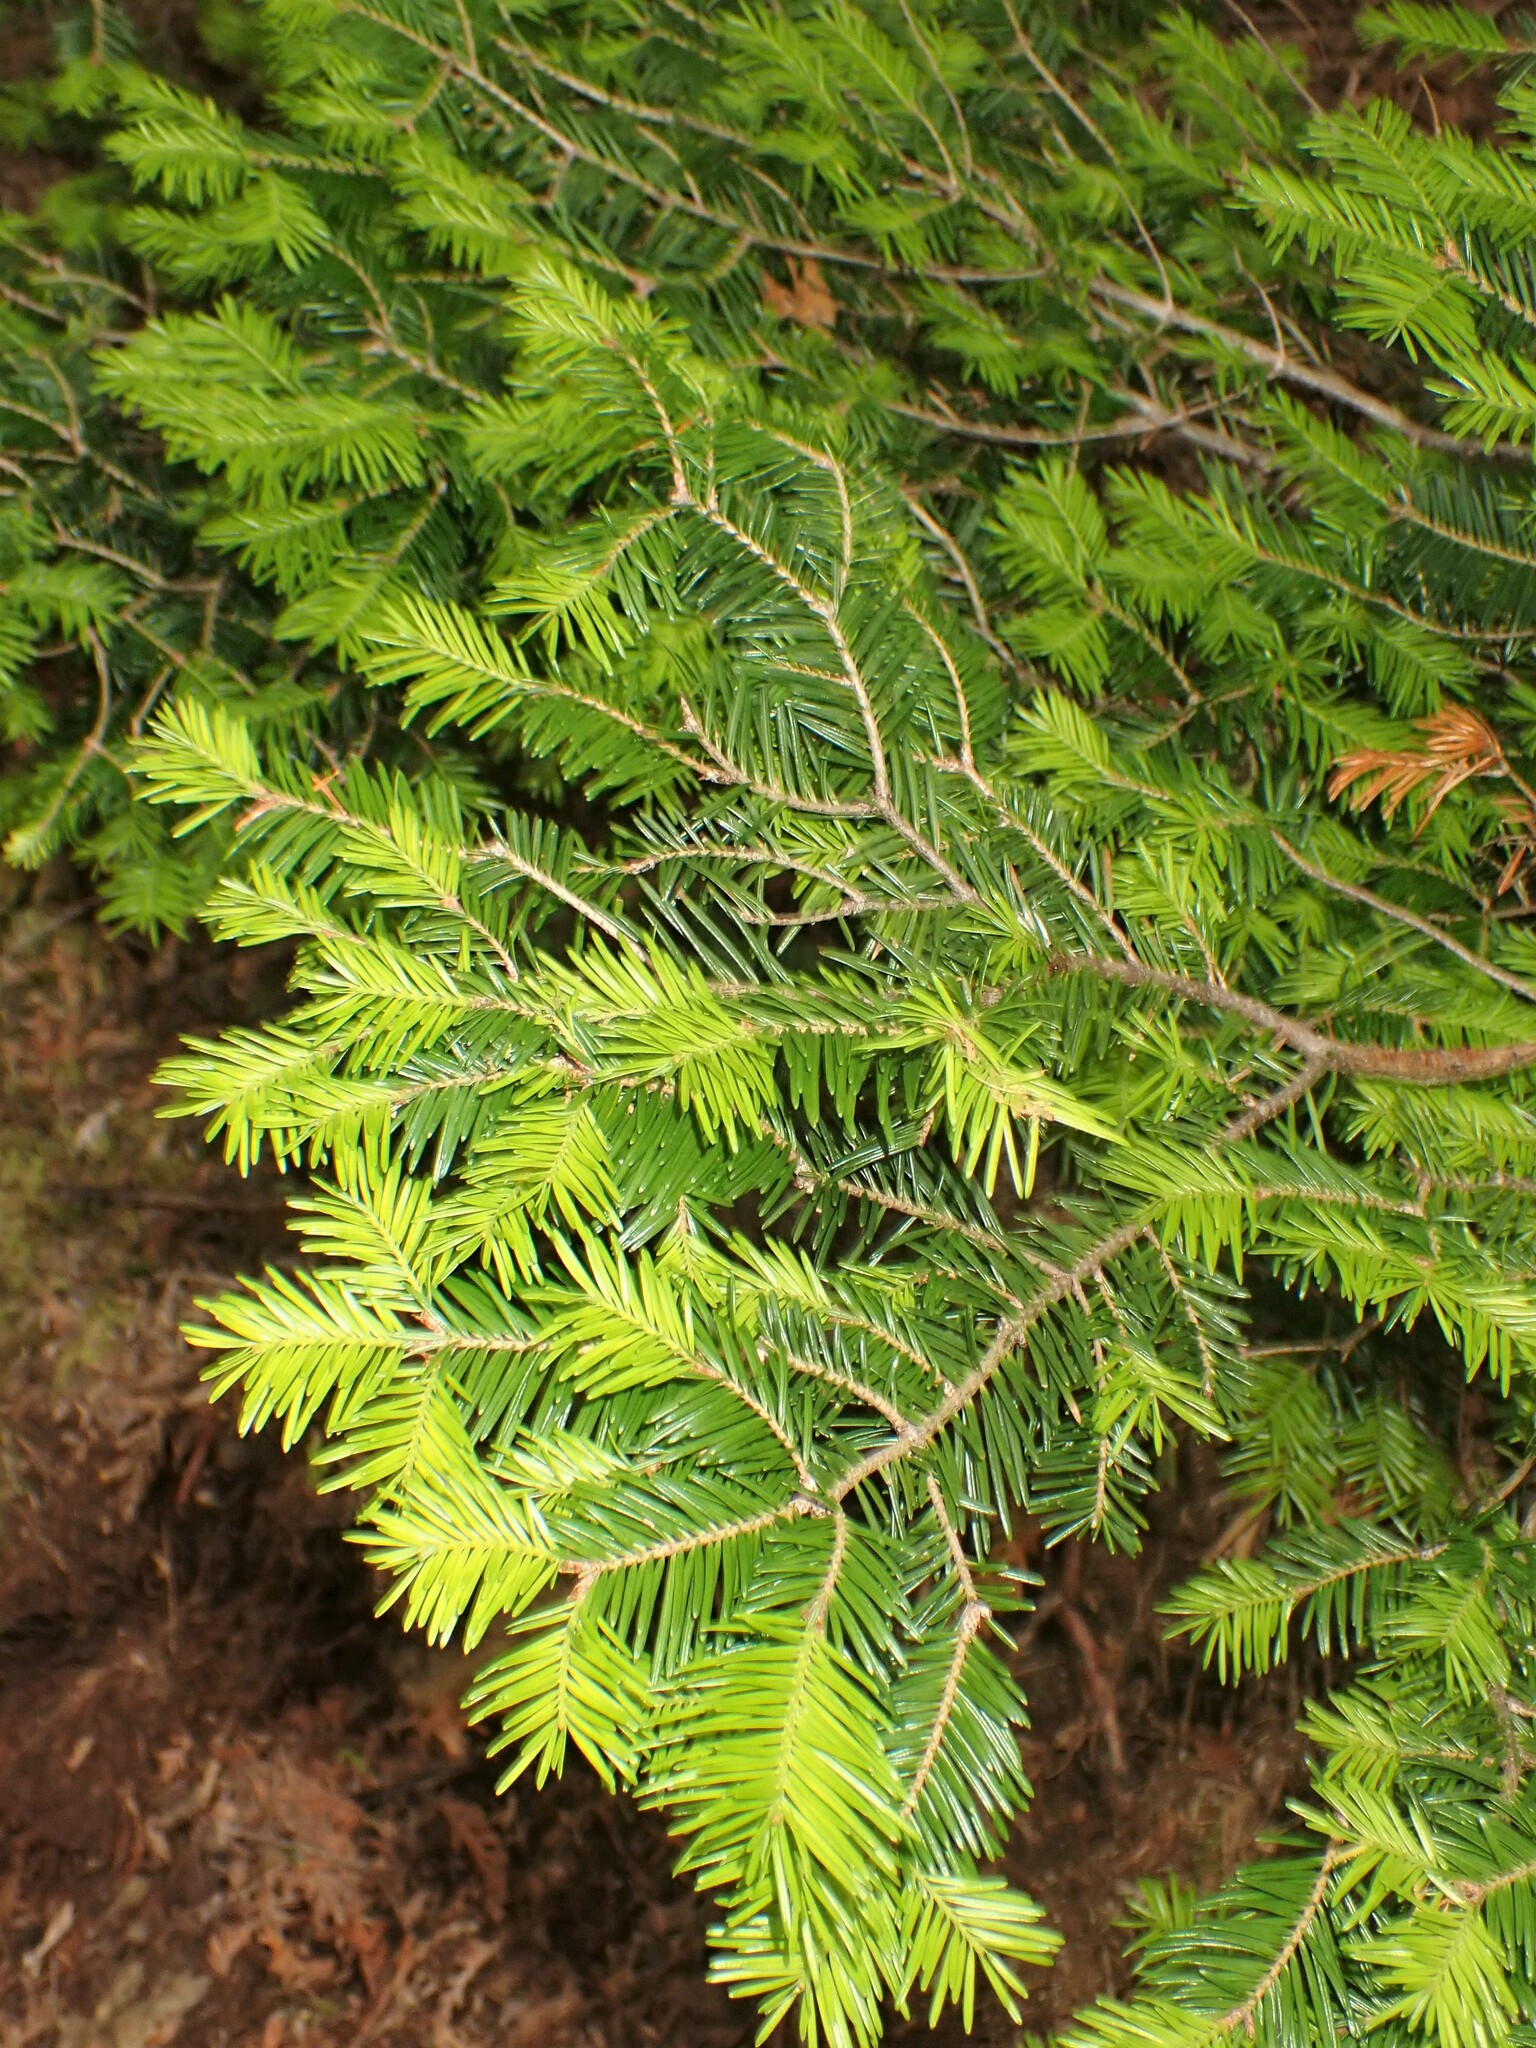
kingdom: Plantae
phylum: Tracheophyta
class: Pinopsida
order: Pinales
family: Pinaceae
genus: Abies
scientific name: Abies balsamea
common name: Balsam fir
